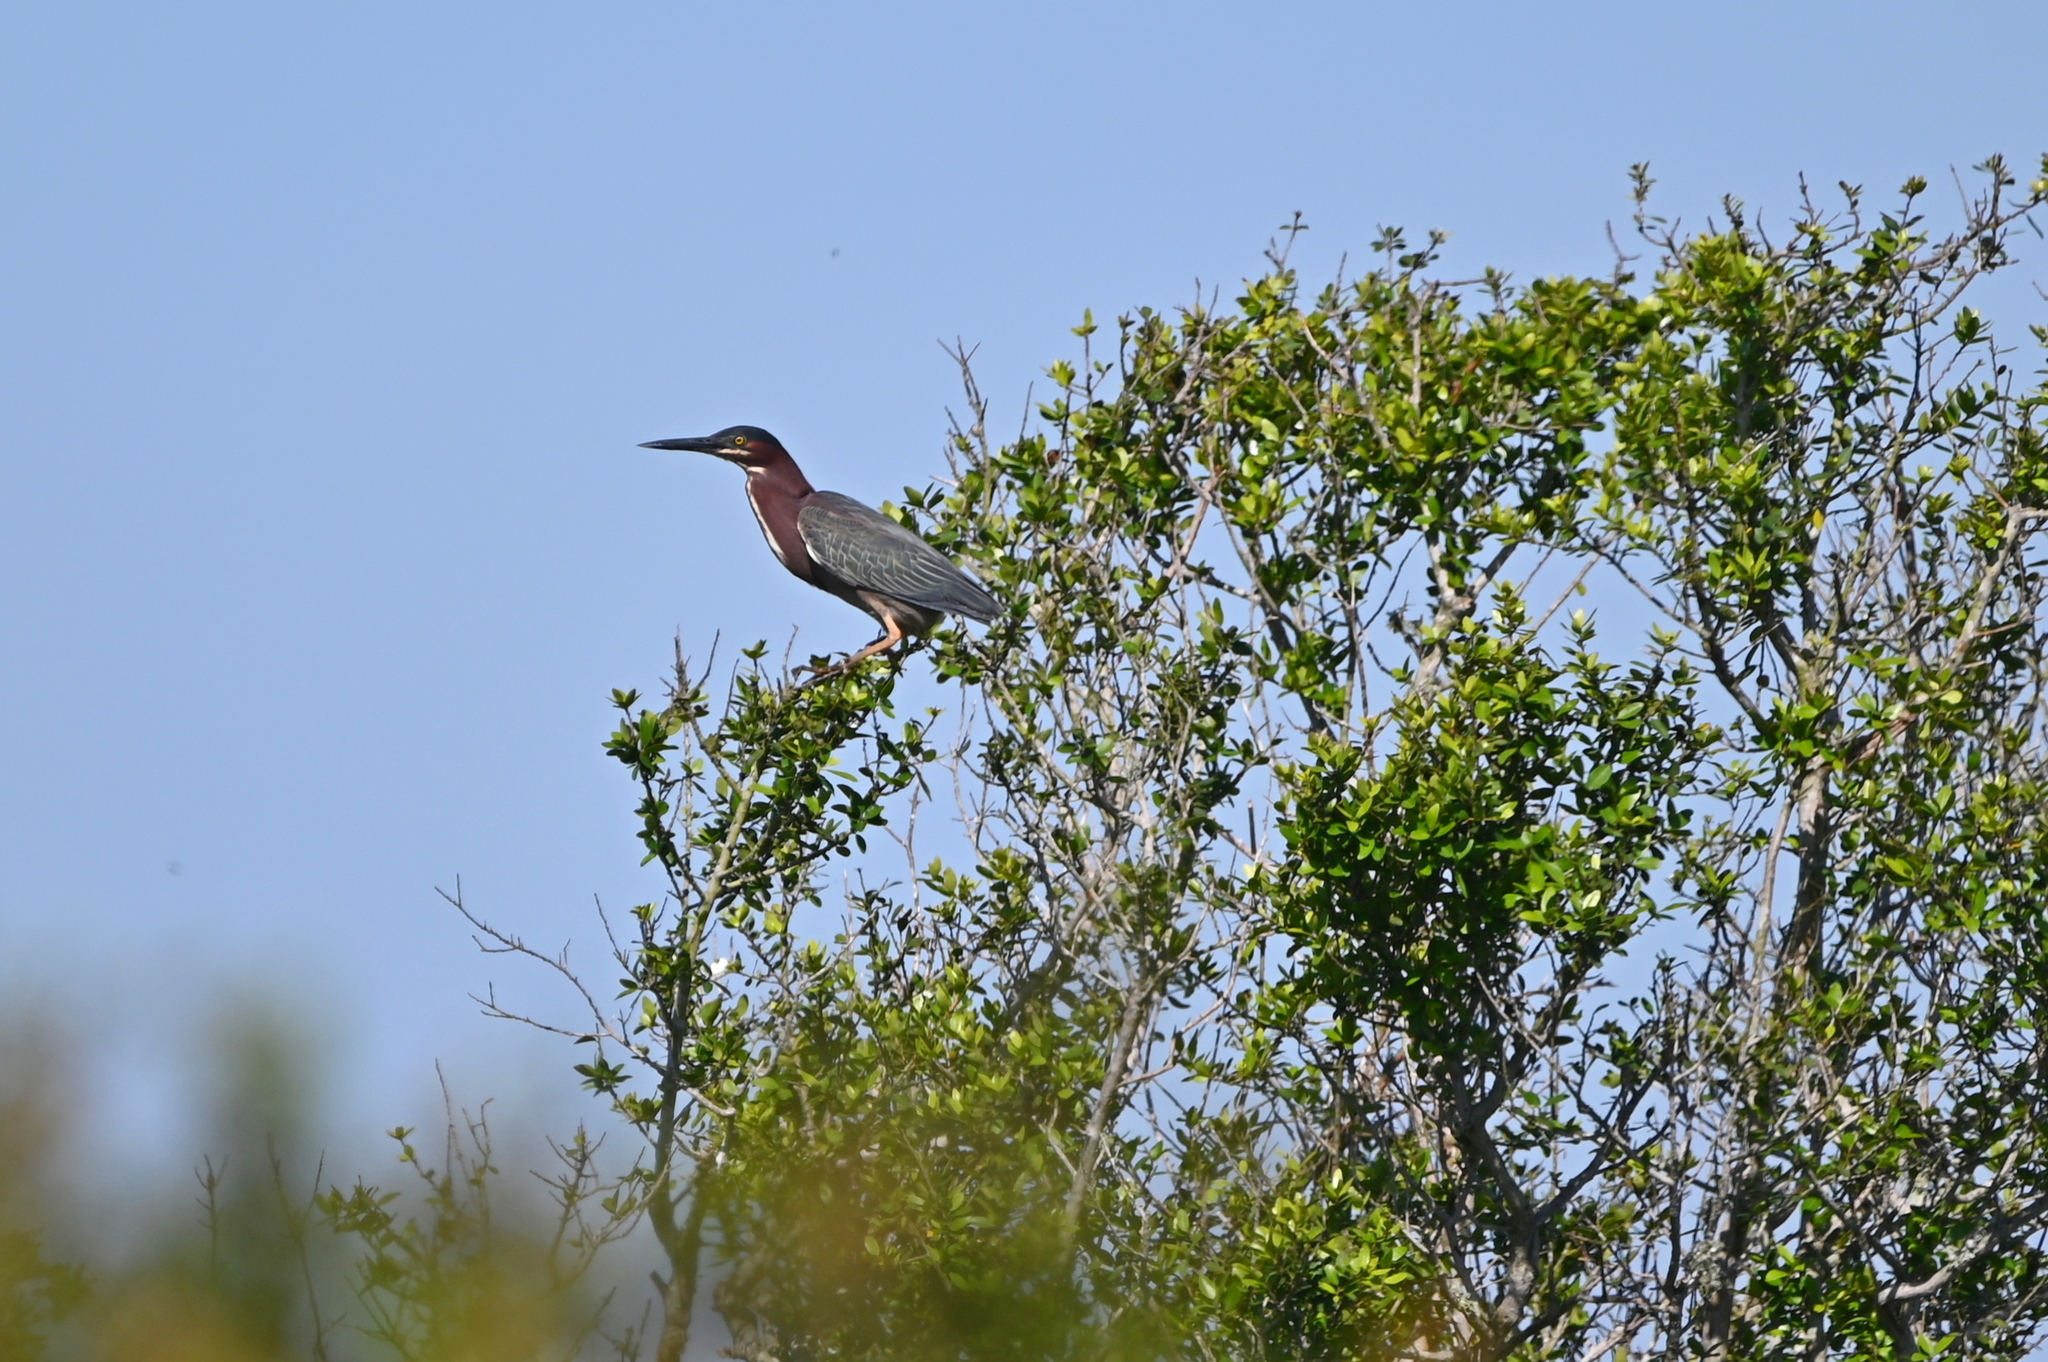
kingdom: Animalia
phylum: Chordata
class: Aves
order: Pelecaniformes
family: Ardeidae
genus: Butorides
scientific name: Butorides virescens
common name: Green heron
